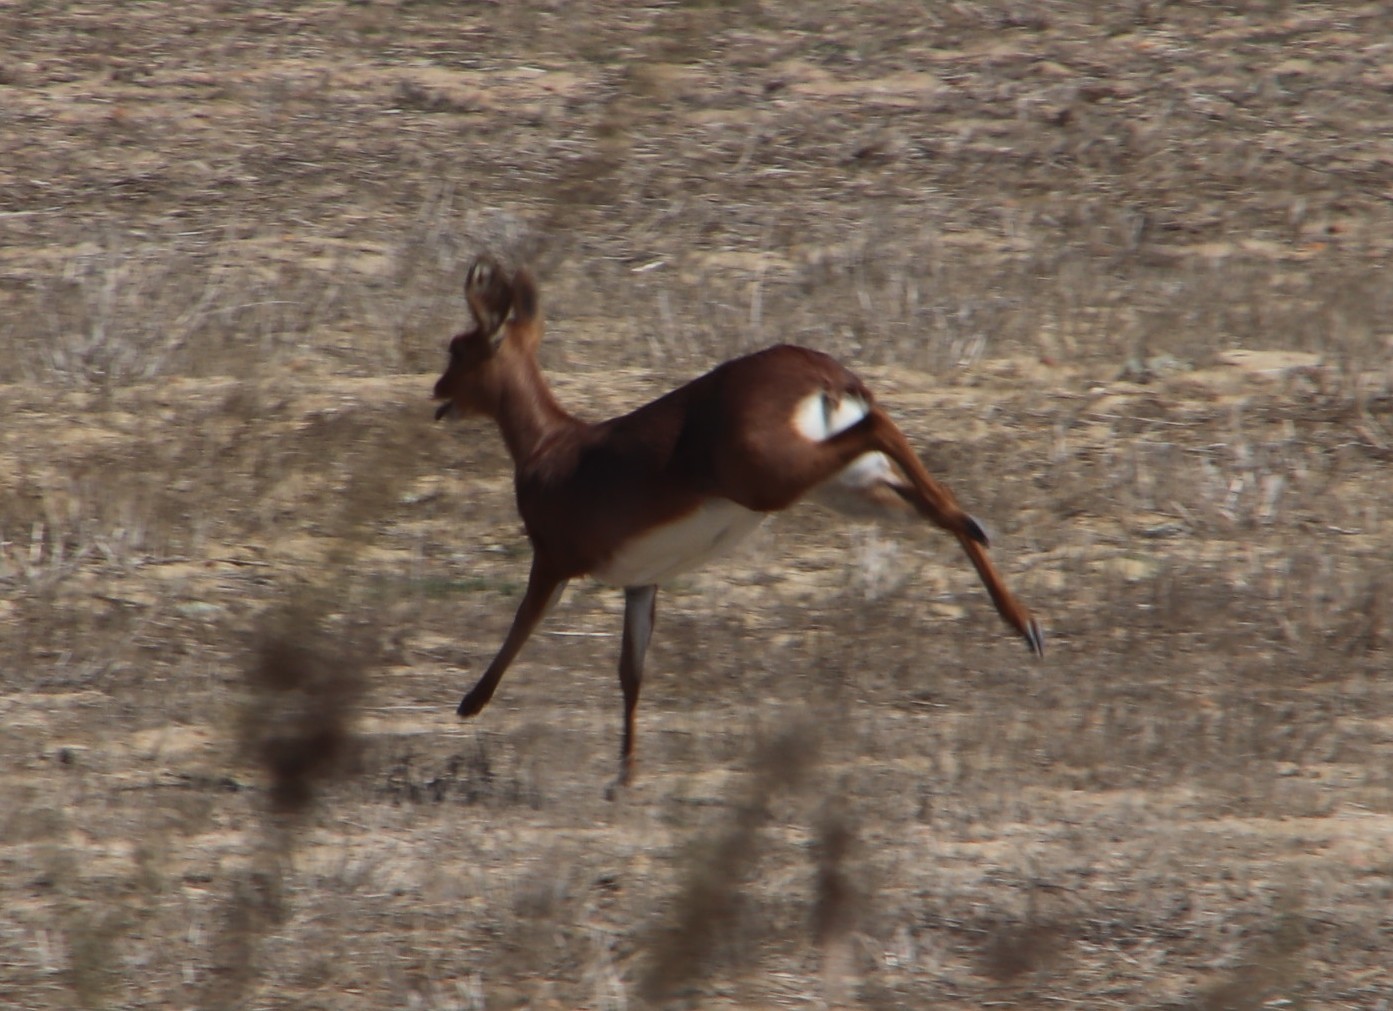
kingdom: Animalia
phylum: Chordata
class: Mammalia
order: Artiodactyla
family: Bovidae
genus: Raphicerus
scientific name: Raphicerus campestris
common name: Steenbok
